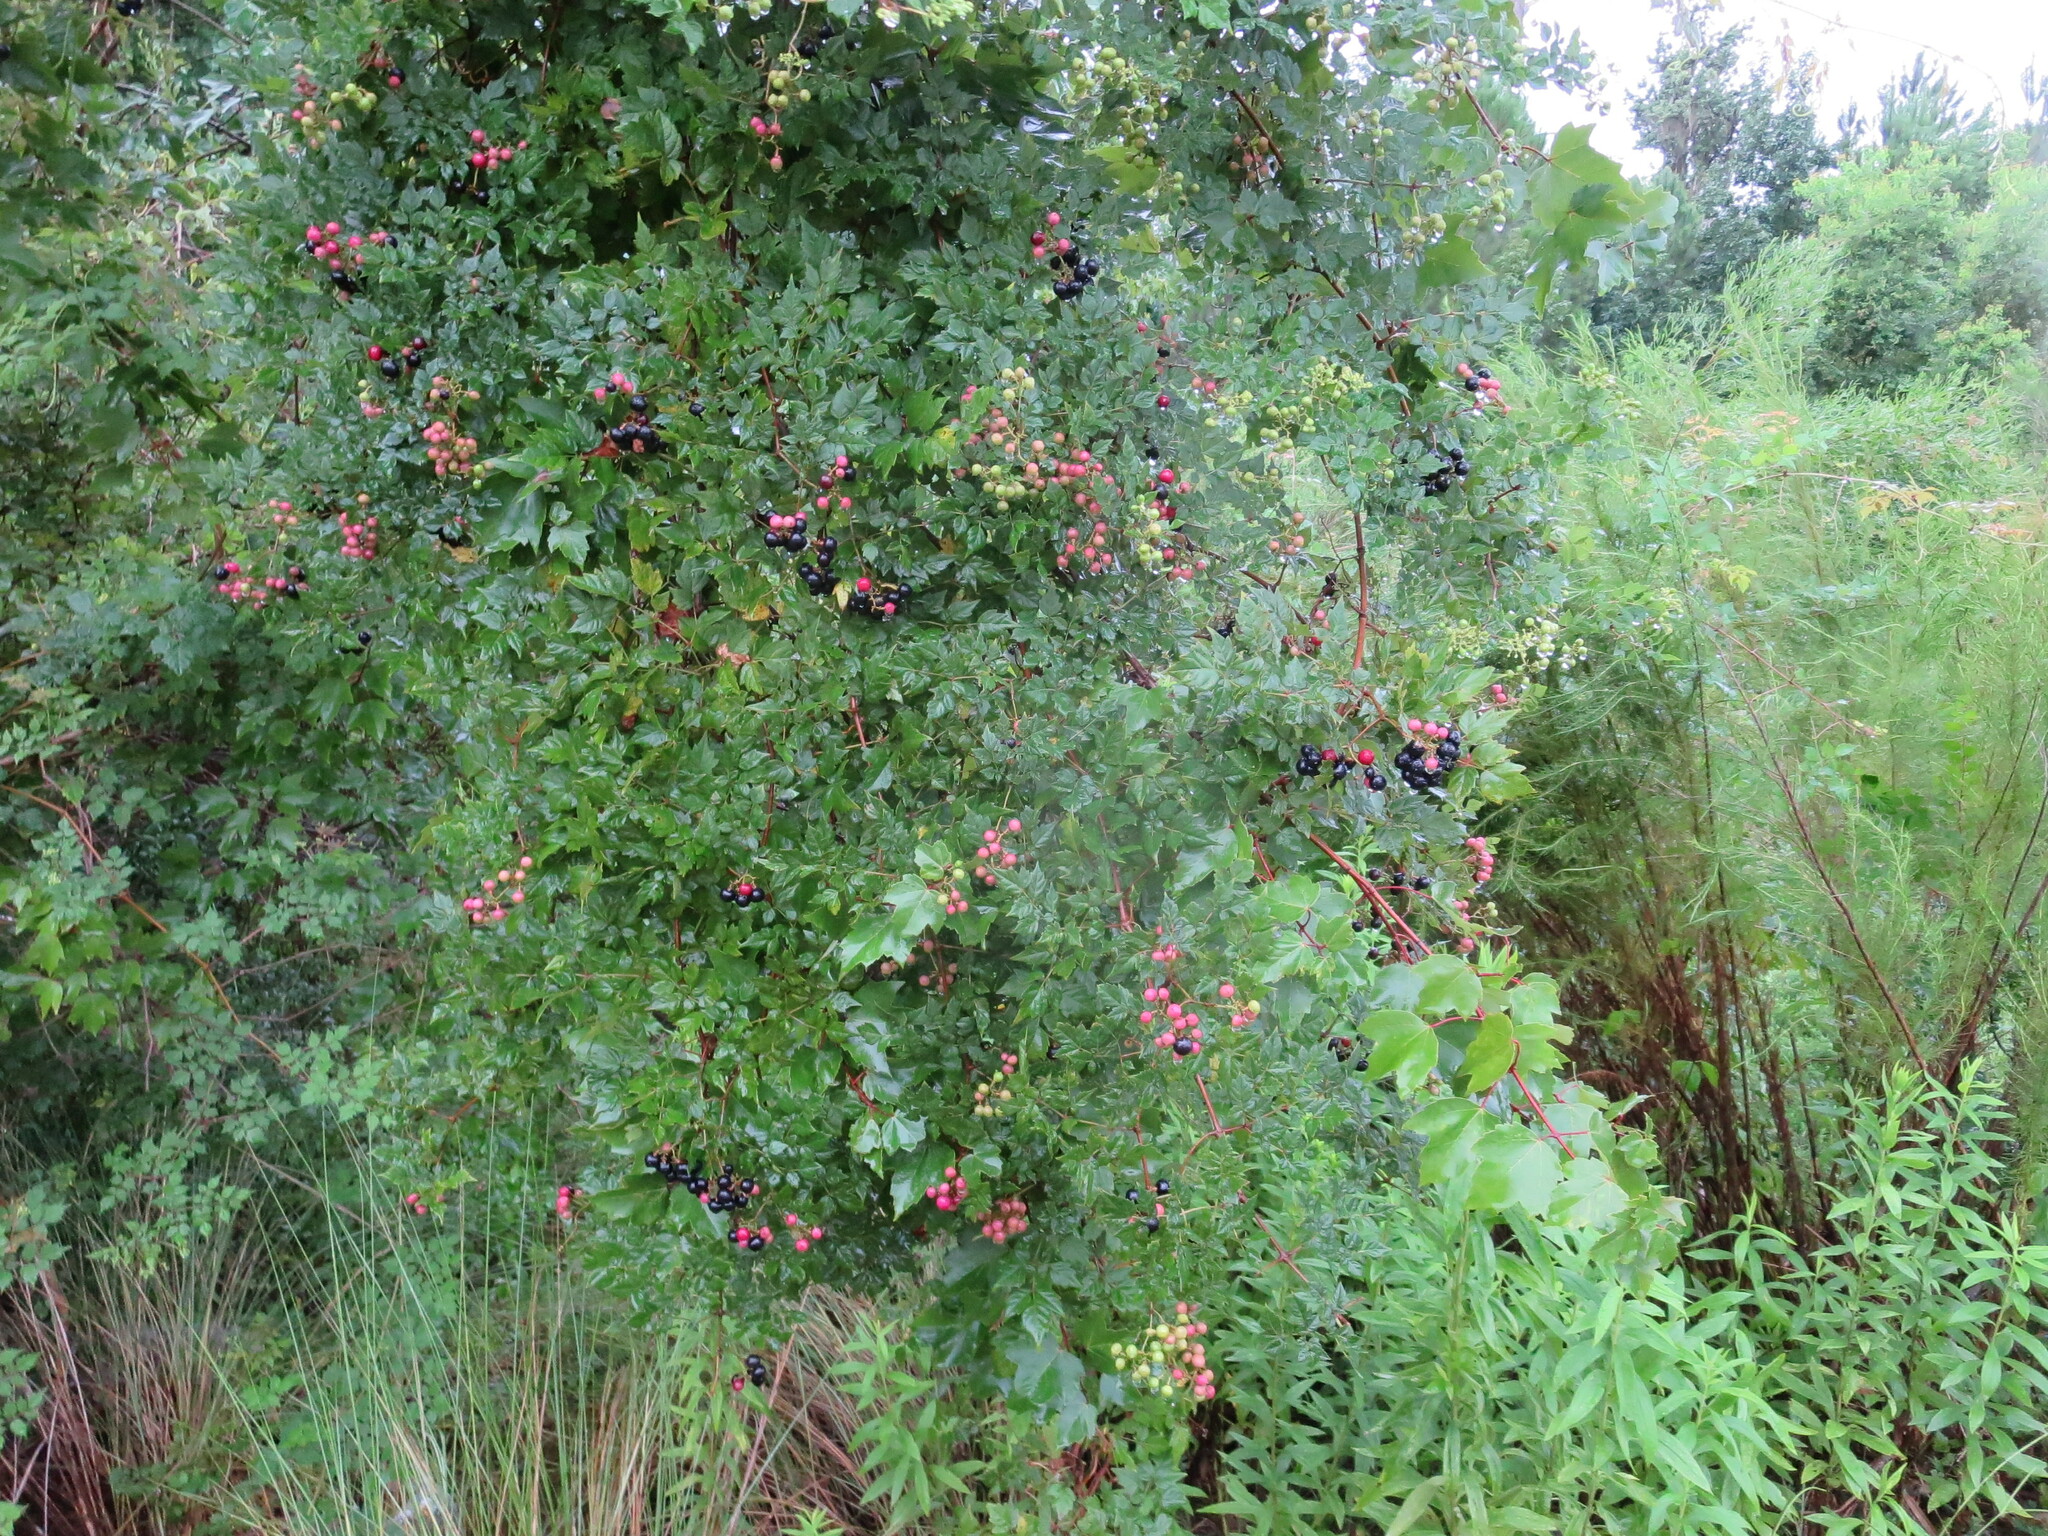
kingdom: Plantae
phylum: Tracheophyta
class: Magnoliopsida
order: Vitales
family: Vitaceae
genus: Nekemias
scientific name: Nekemias arborea
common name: Peppervine
